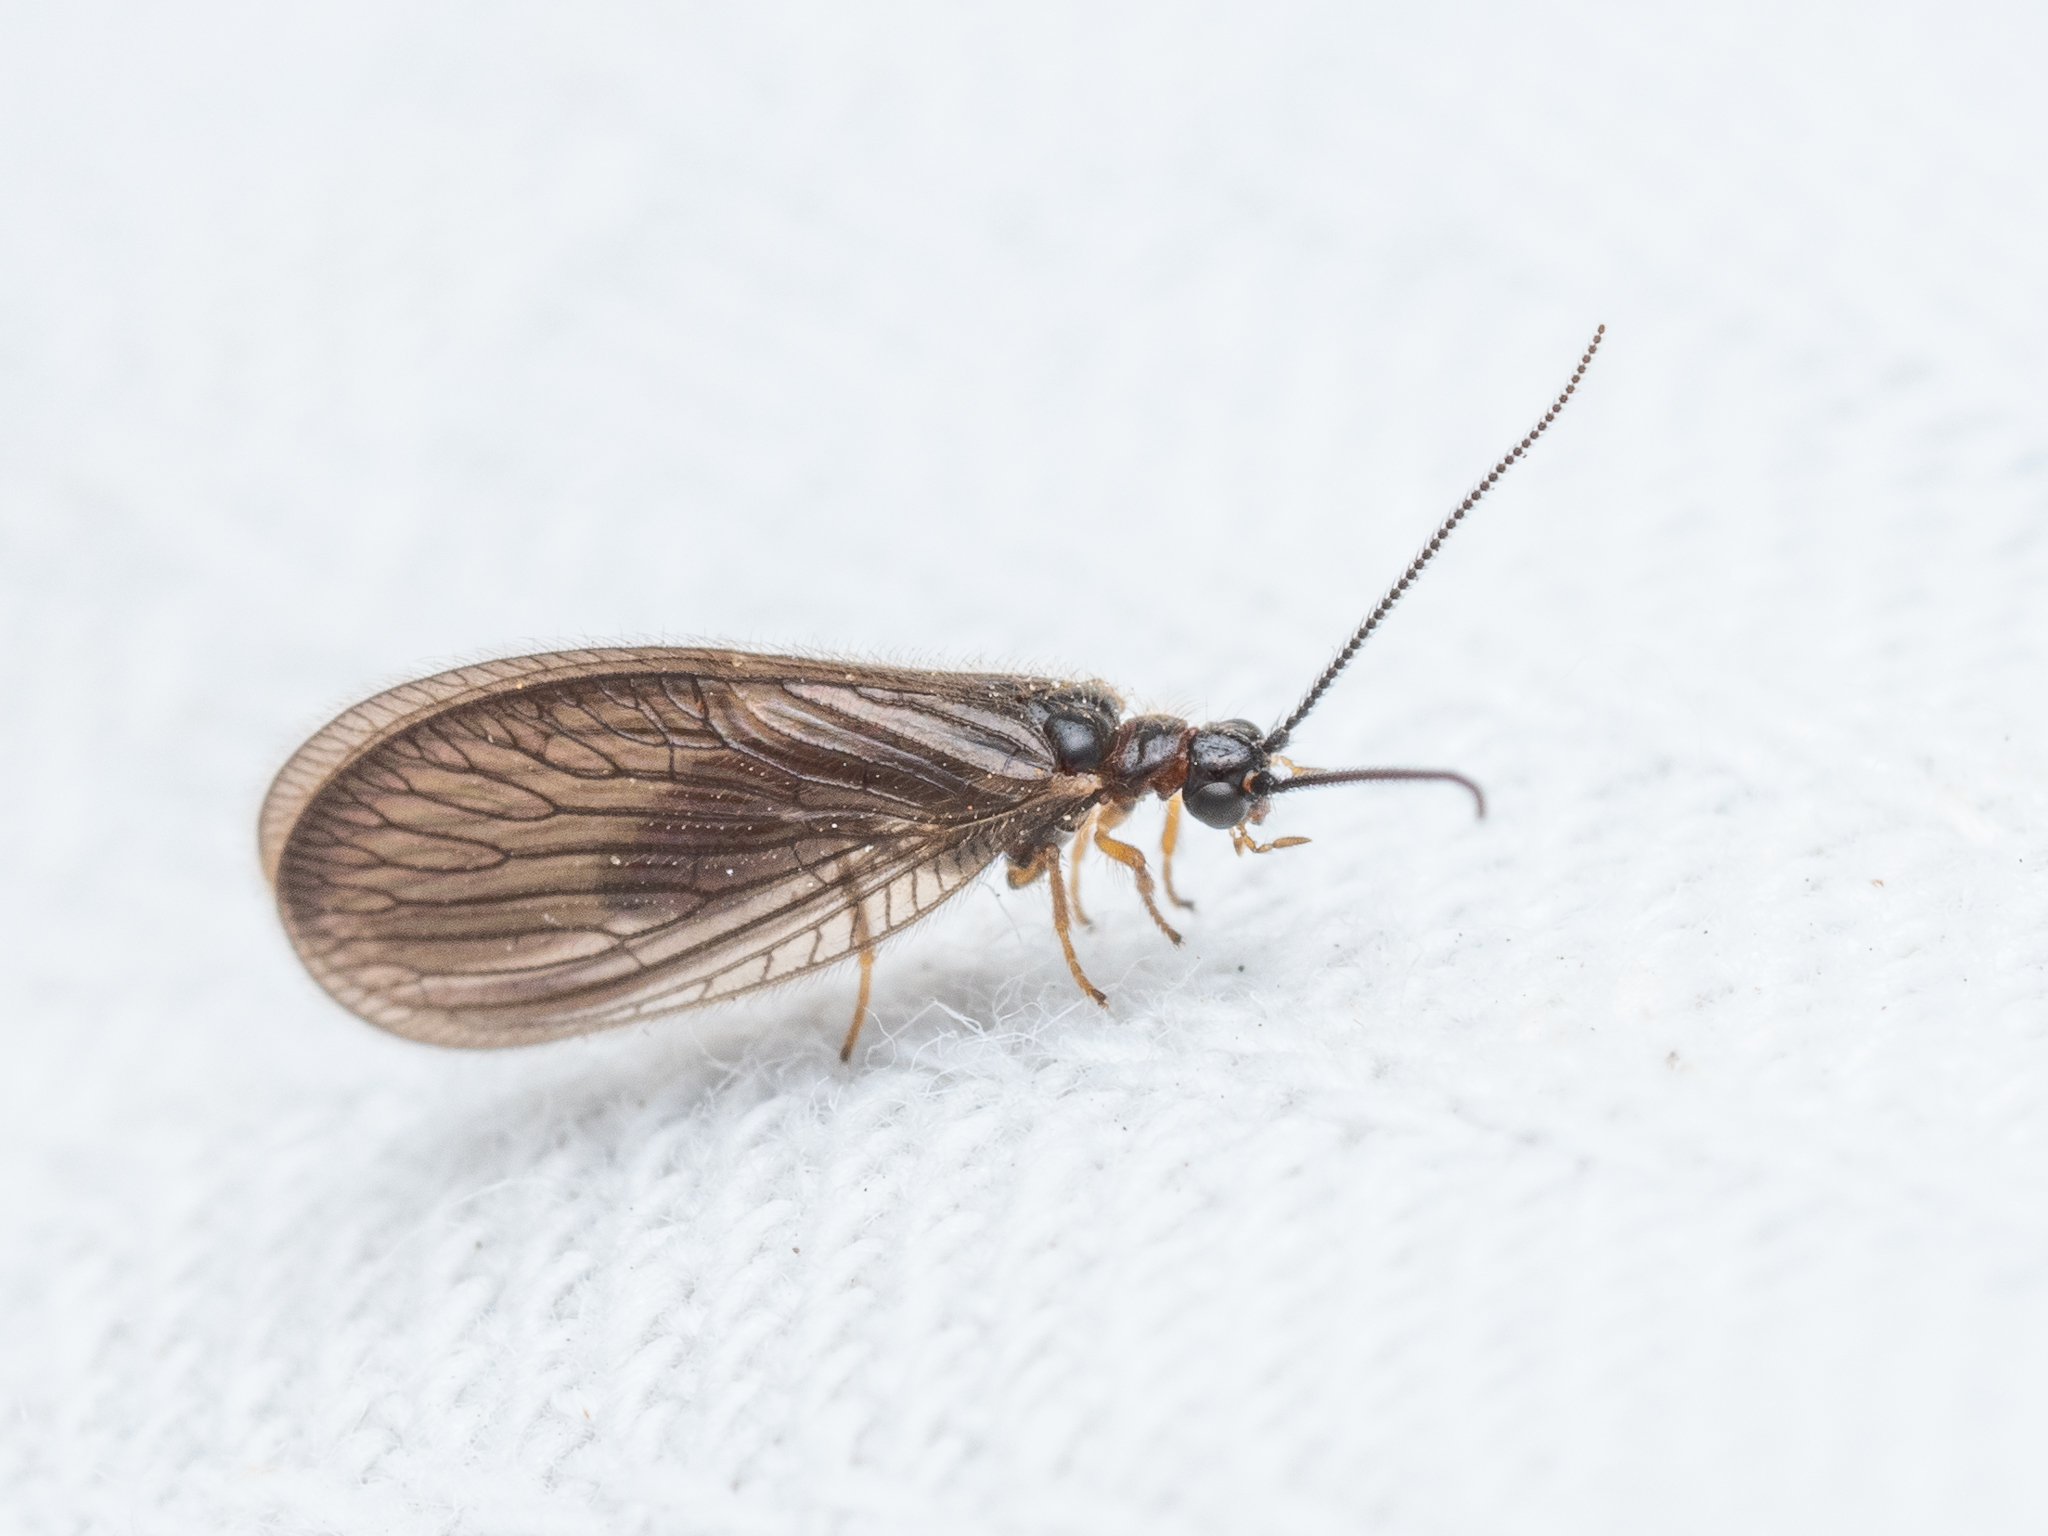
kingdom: Animalia
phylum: Arthropoda
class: Insecta
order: Neuroptera
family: Sisyridae
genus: Sisyra
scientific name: Sisyra nigra
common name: Black spongillafly
